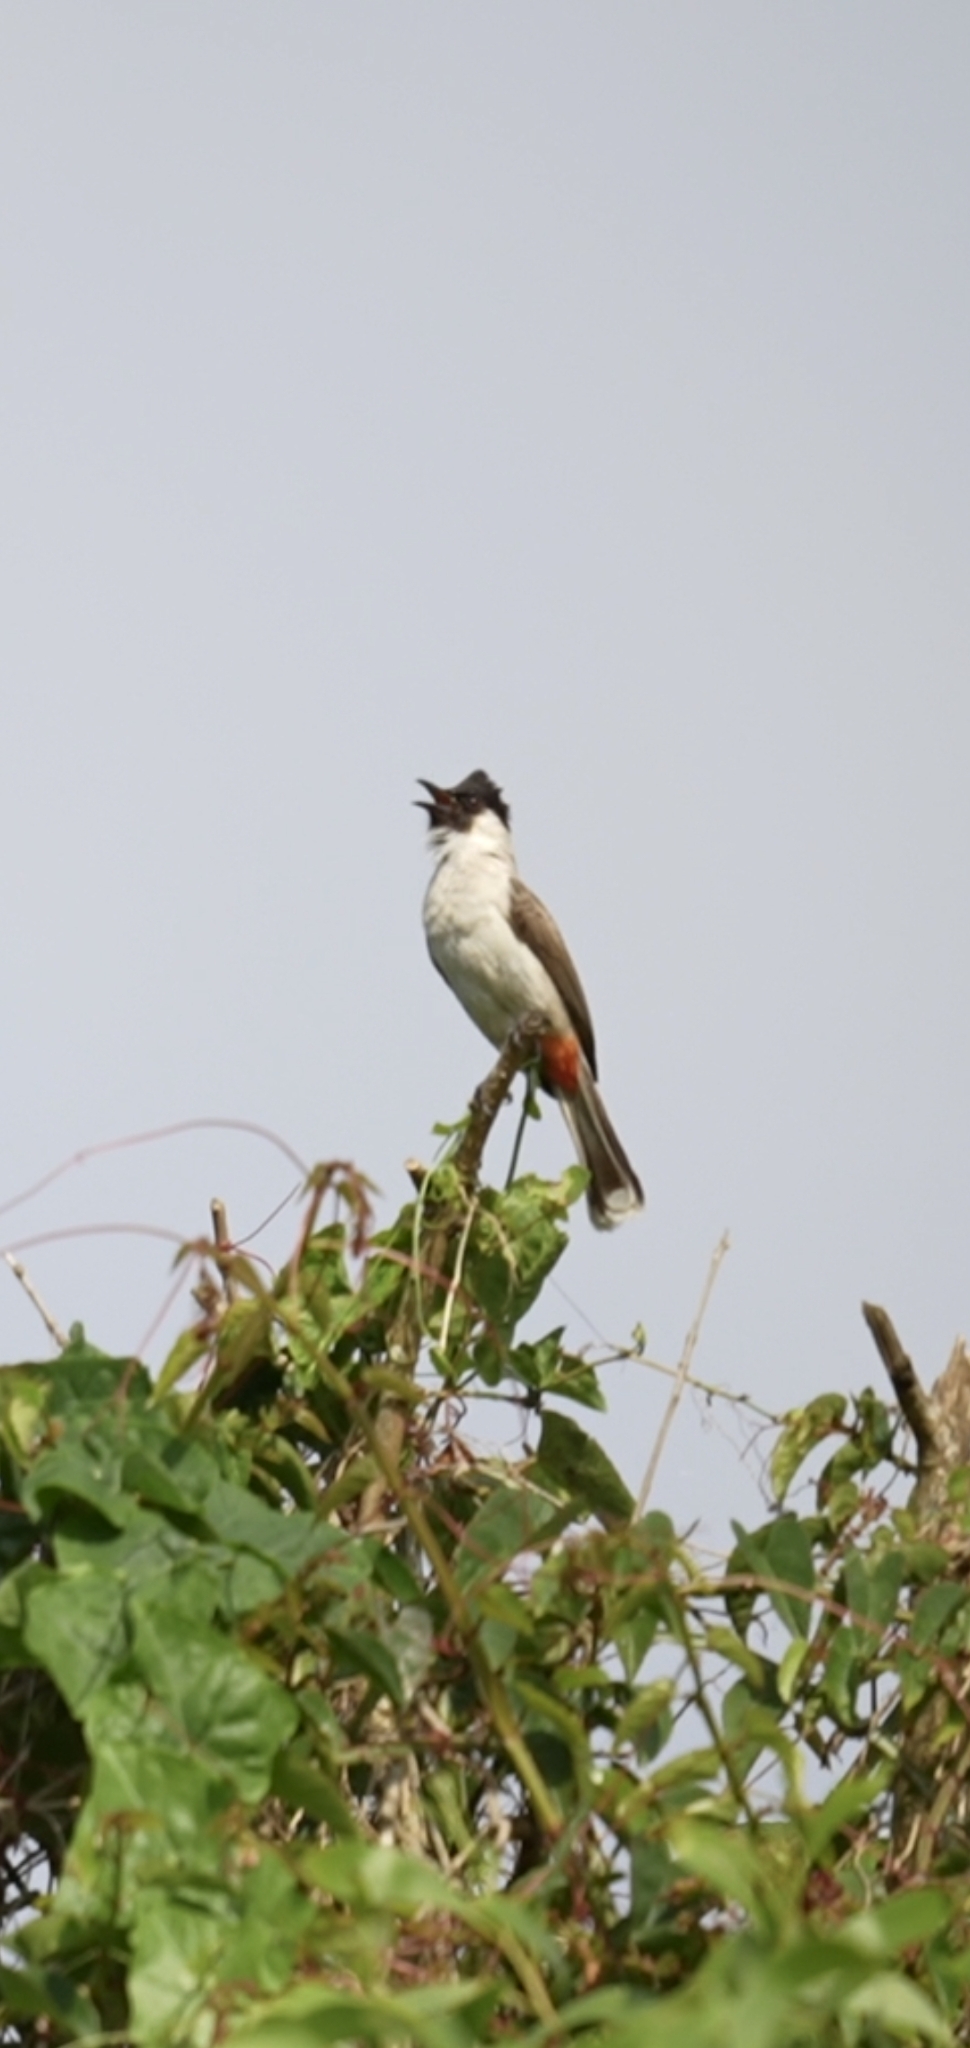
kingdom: Animalia
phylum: Chordata
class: Aves
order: Passeriformes
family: Pycnonotidae
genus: Pycnonotus
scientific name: Pycnonotus aurigaster
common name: Sooty-headed bulbul
